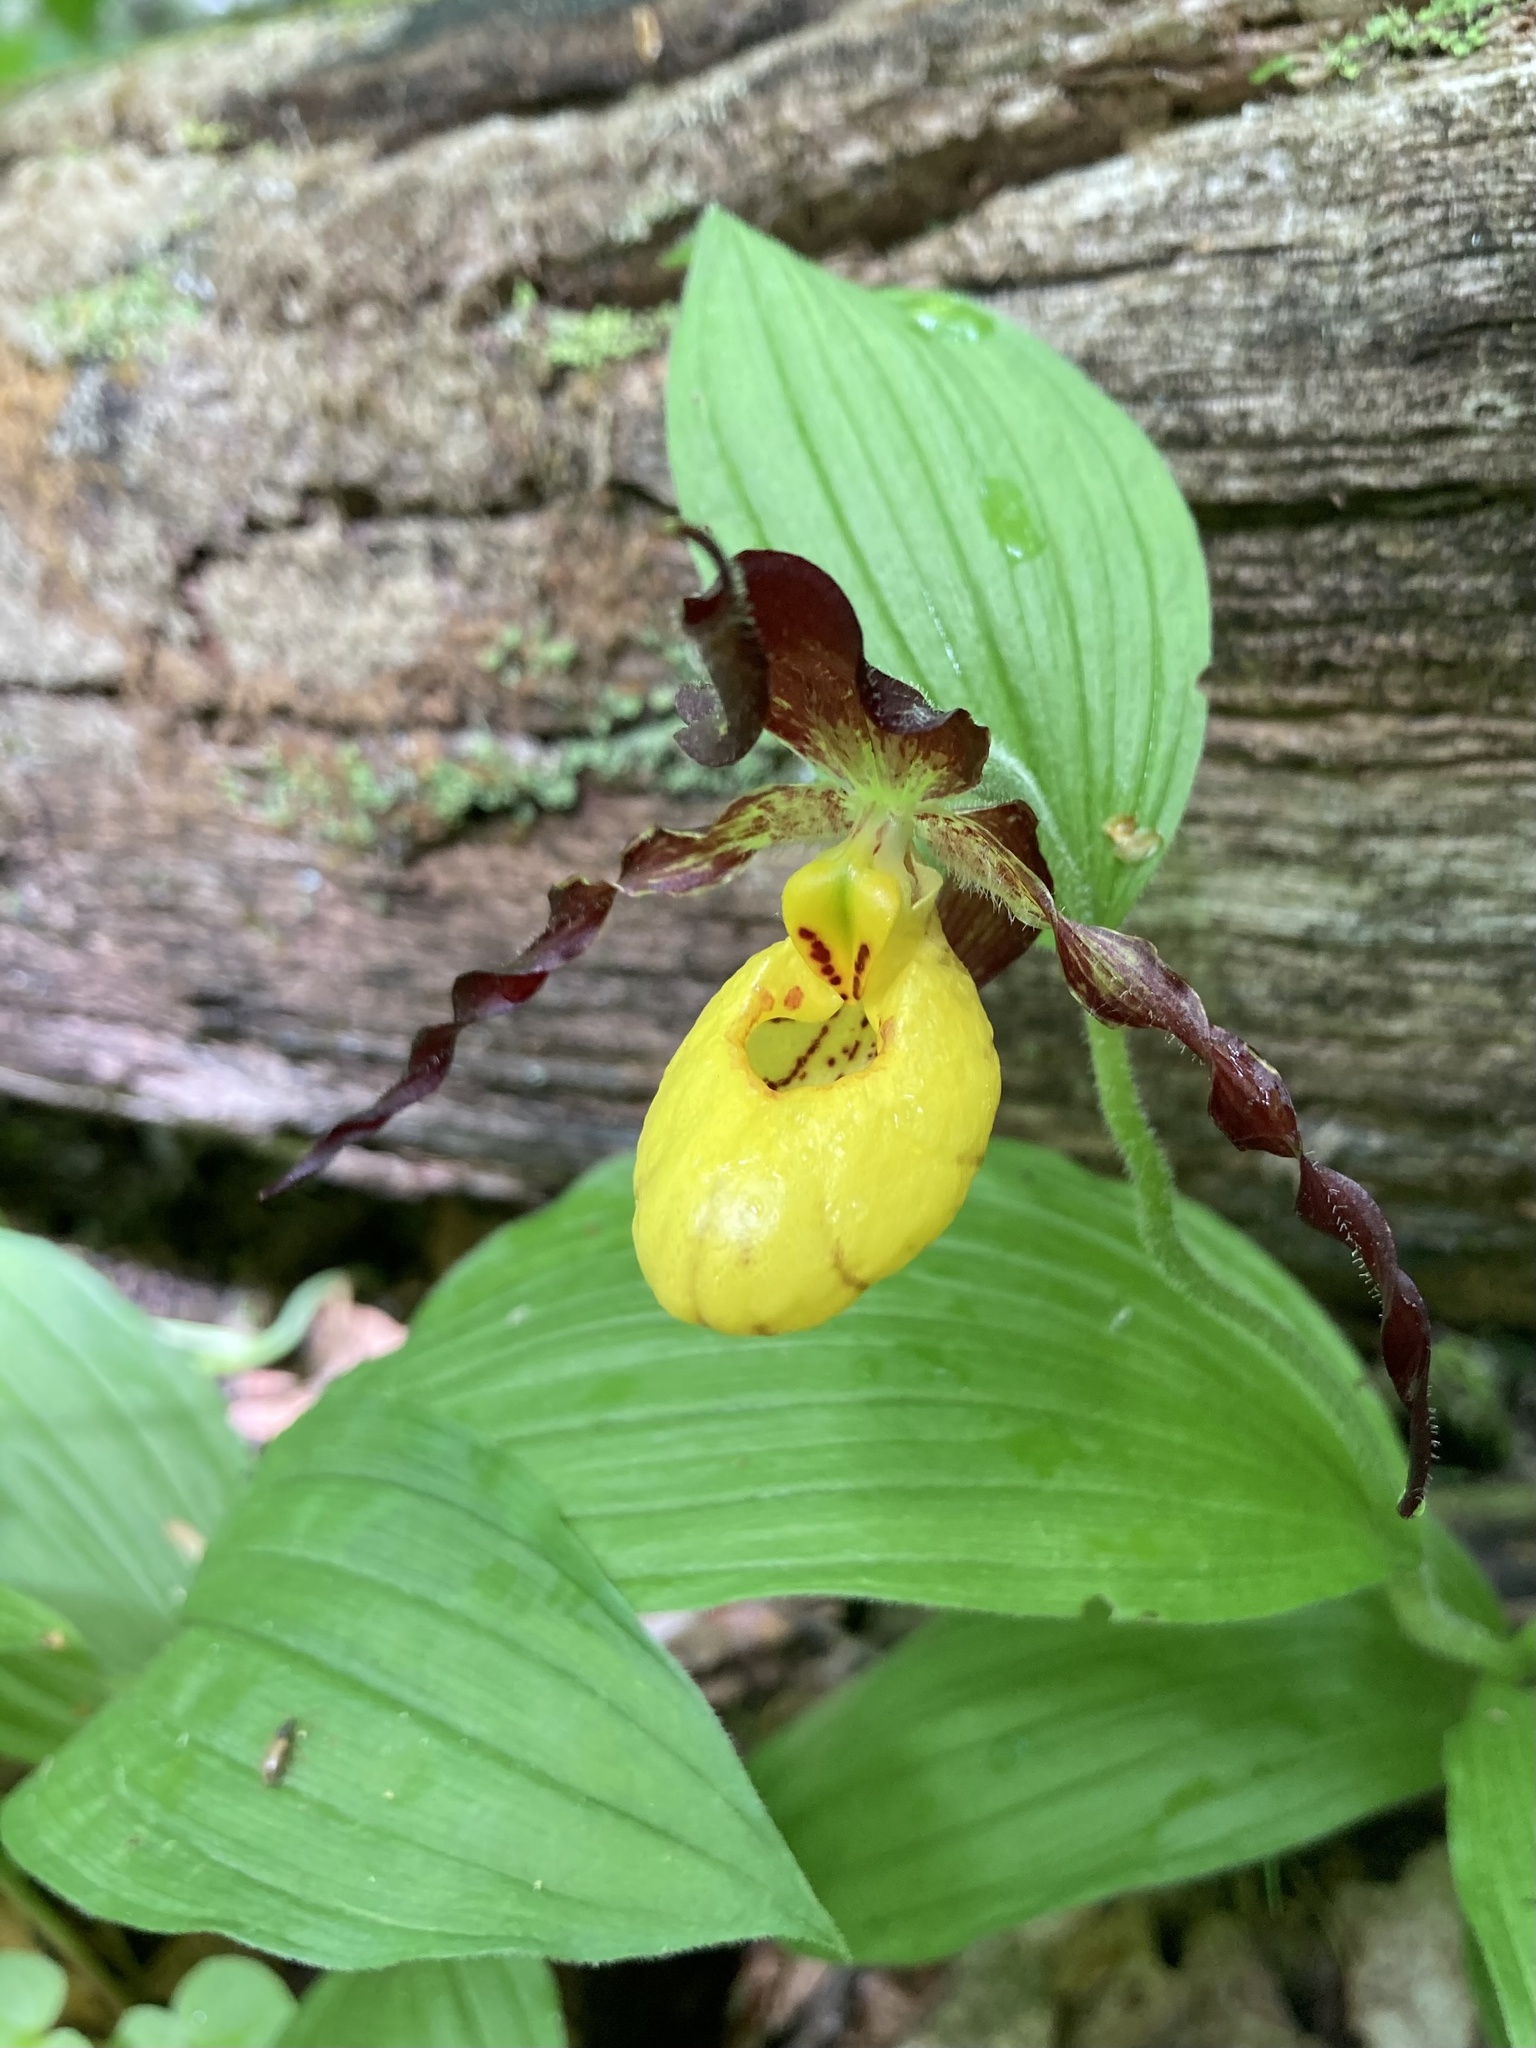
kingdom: Plantae
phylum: Tracheophyta
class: Liliopsida
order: Asparagales
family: Orchidaceae
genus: Cypripedium
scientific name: Cypripedium parviflorum
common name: American yellow lady's-slipper
